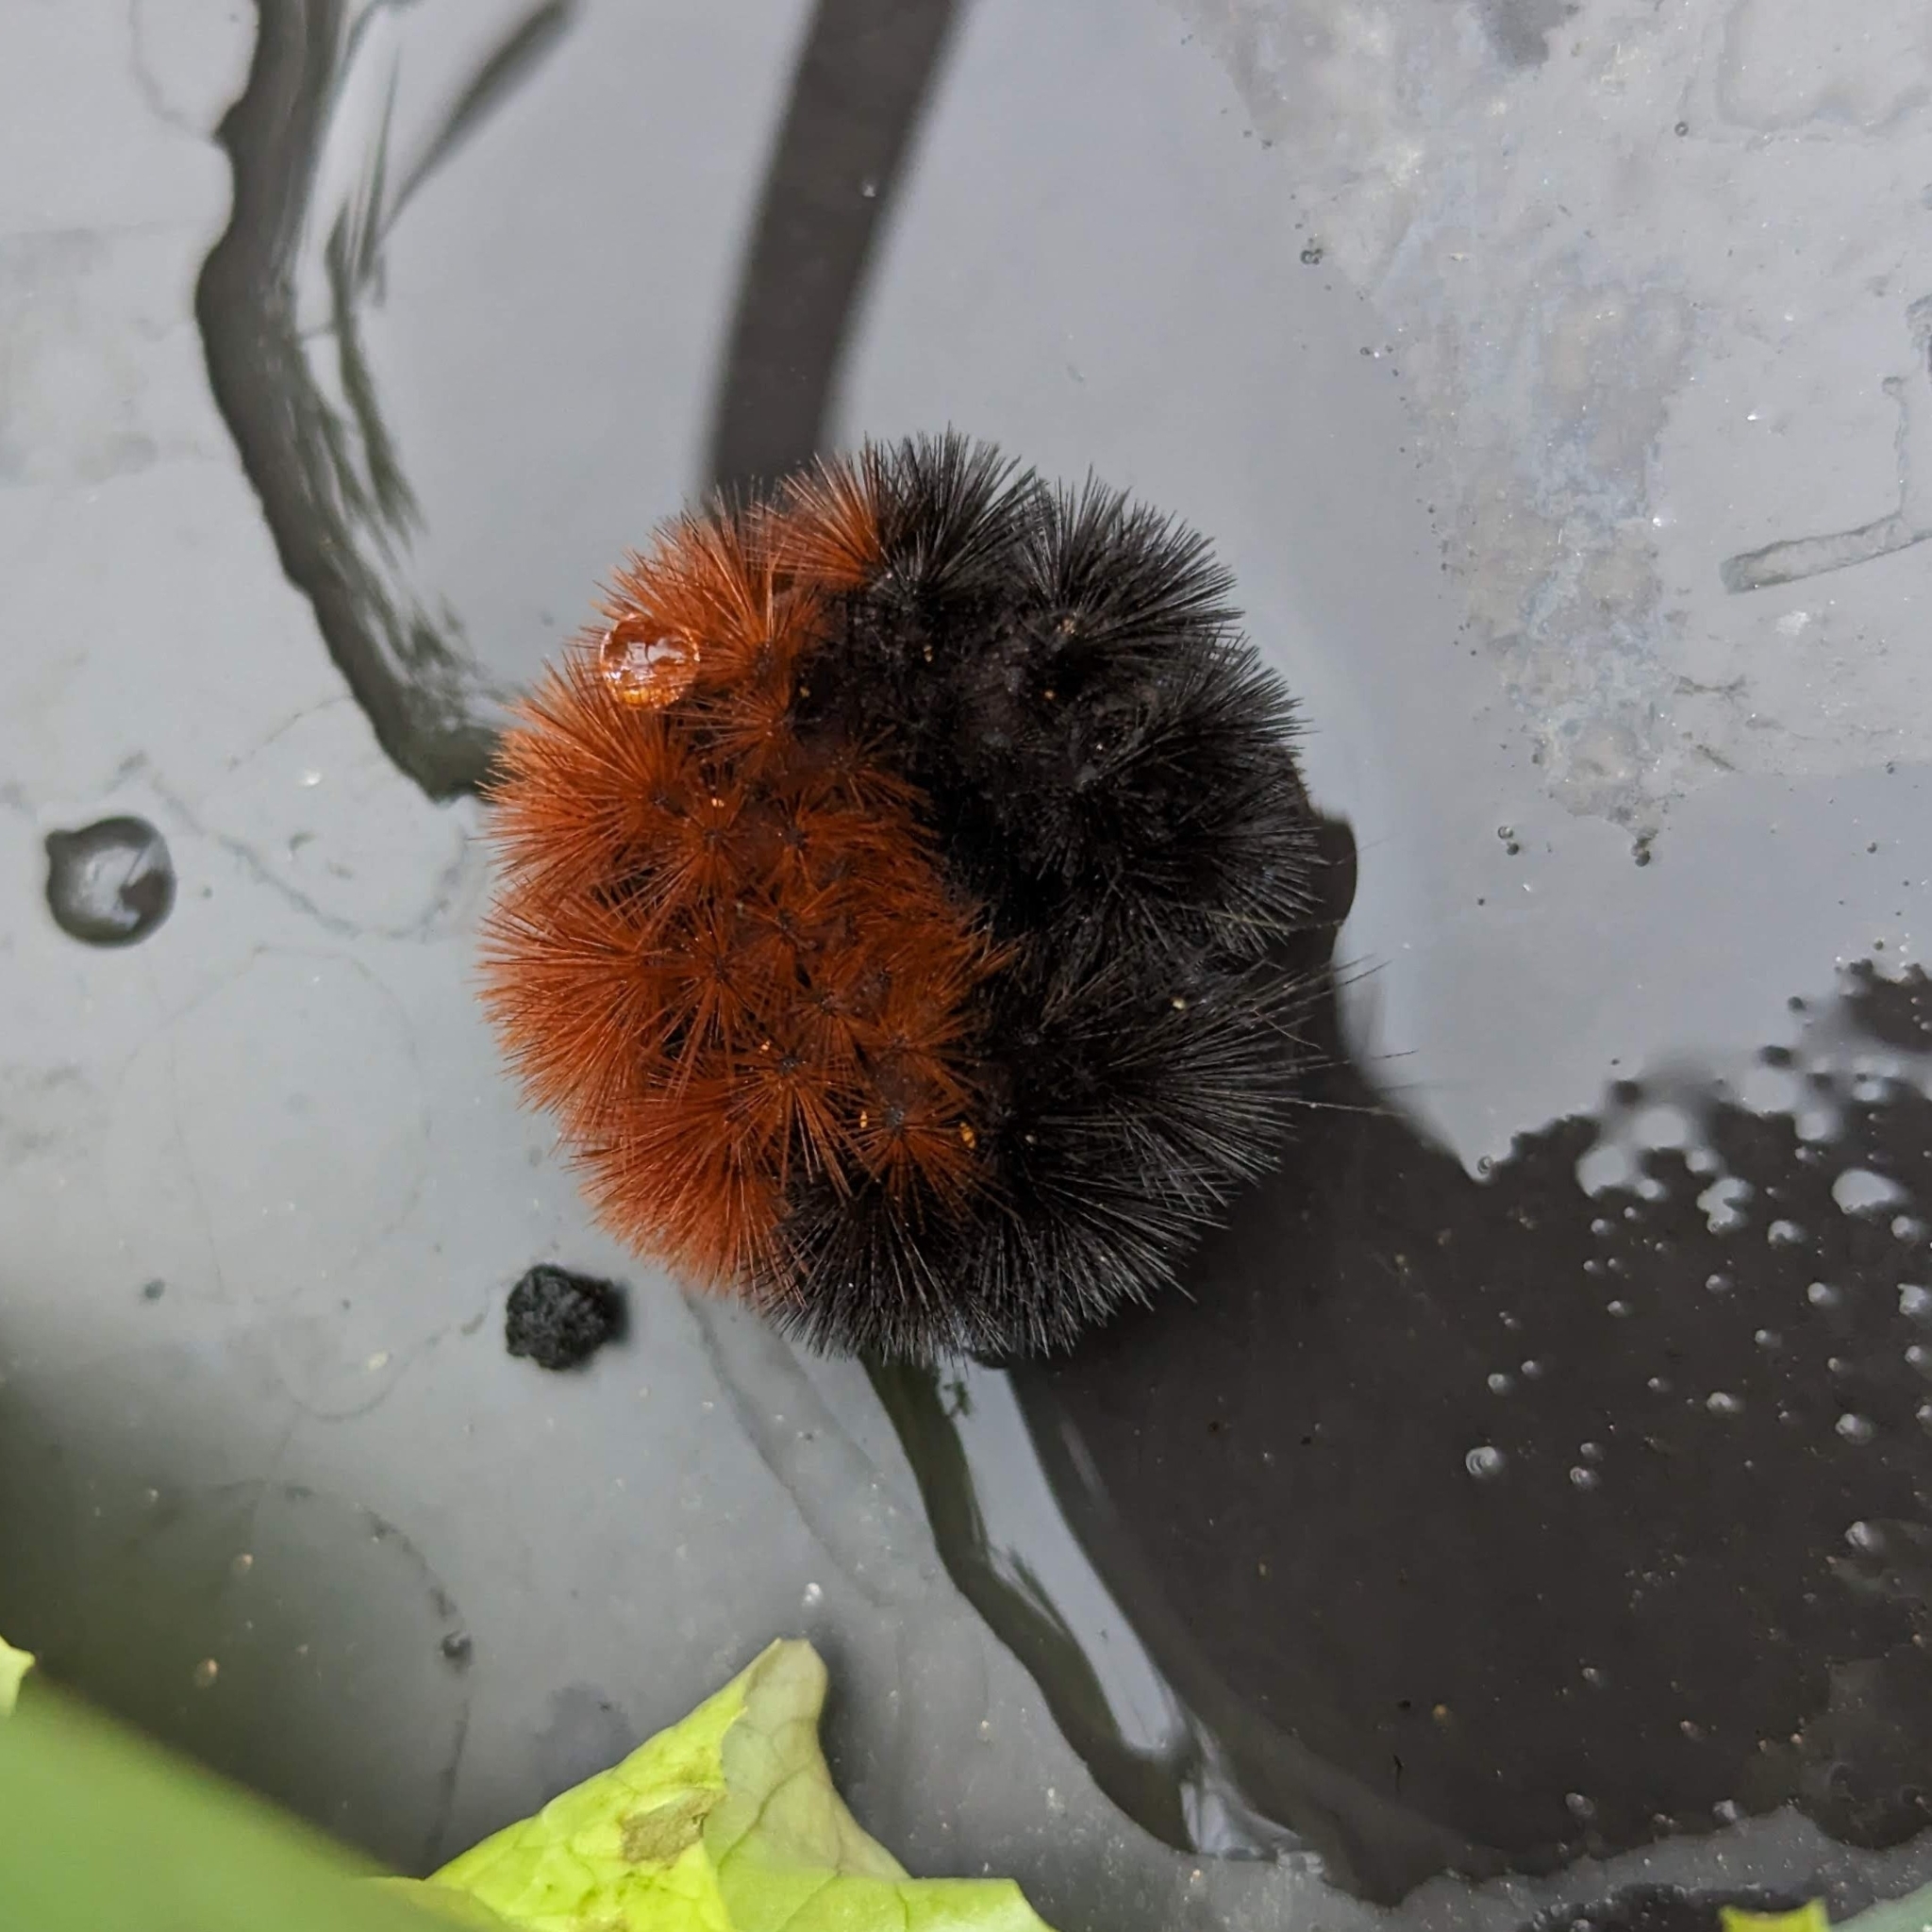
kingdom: Animalia
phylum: Arthropoda
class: Insecta
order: Lepidoptera
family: Erebidae
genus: Pyrrharctia
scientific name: Pyrrharctia isabella
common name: Isabella tiger moth
